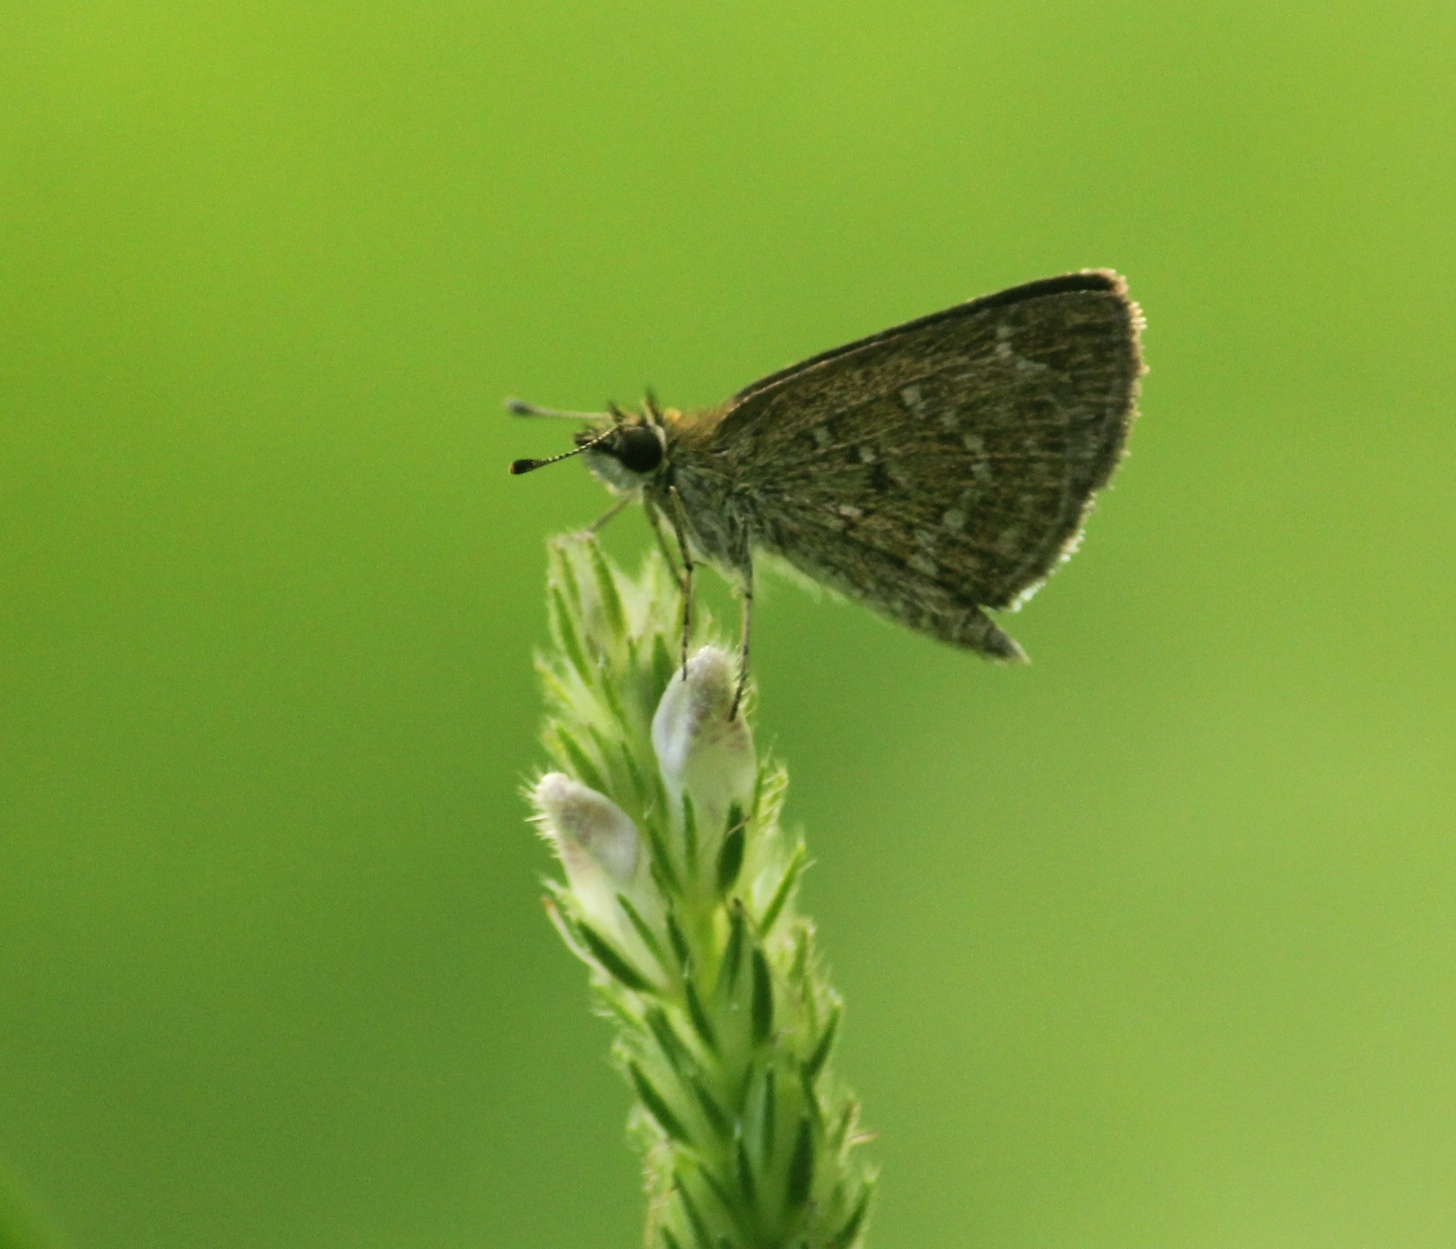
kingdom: Animalia
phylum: Arthropoda
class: Insecta
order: Lepidoptera
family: Hesperiidae
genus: Aeromachus
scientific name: Aeromachus pygmaeus
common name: Pygmy scrub hopper
